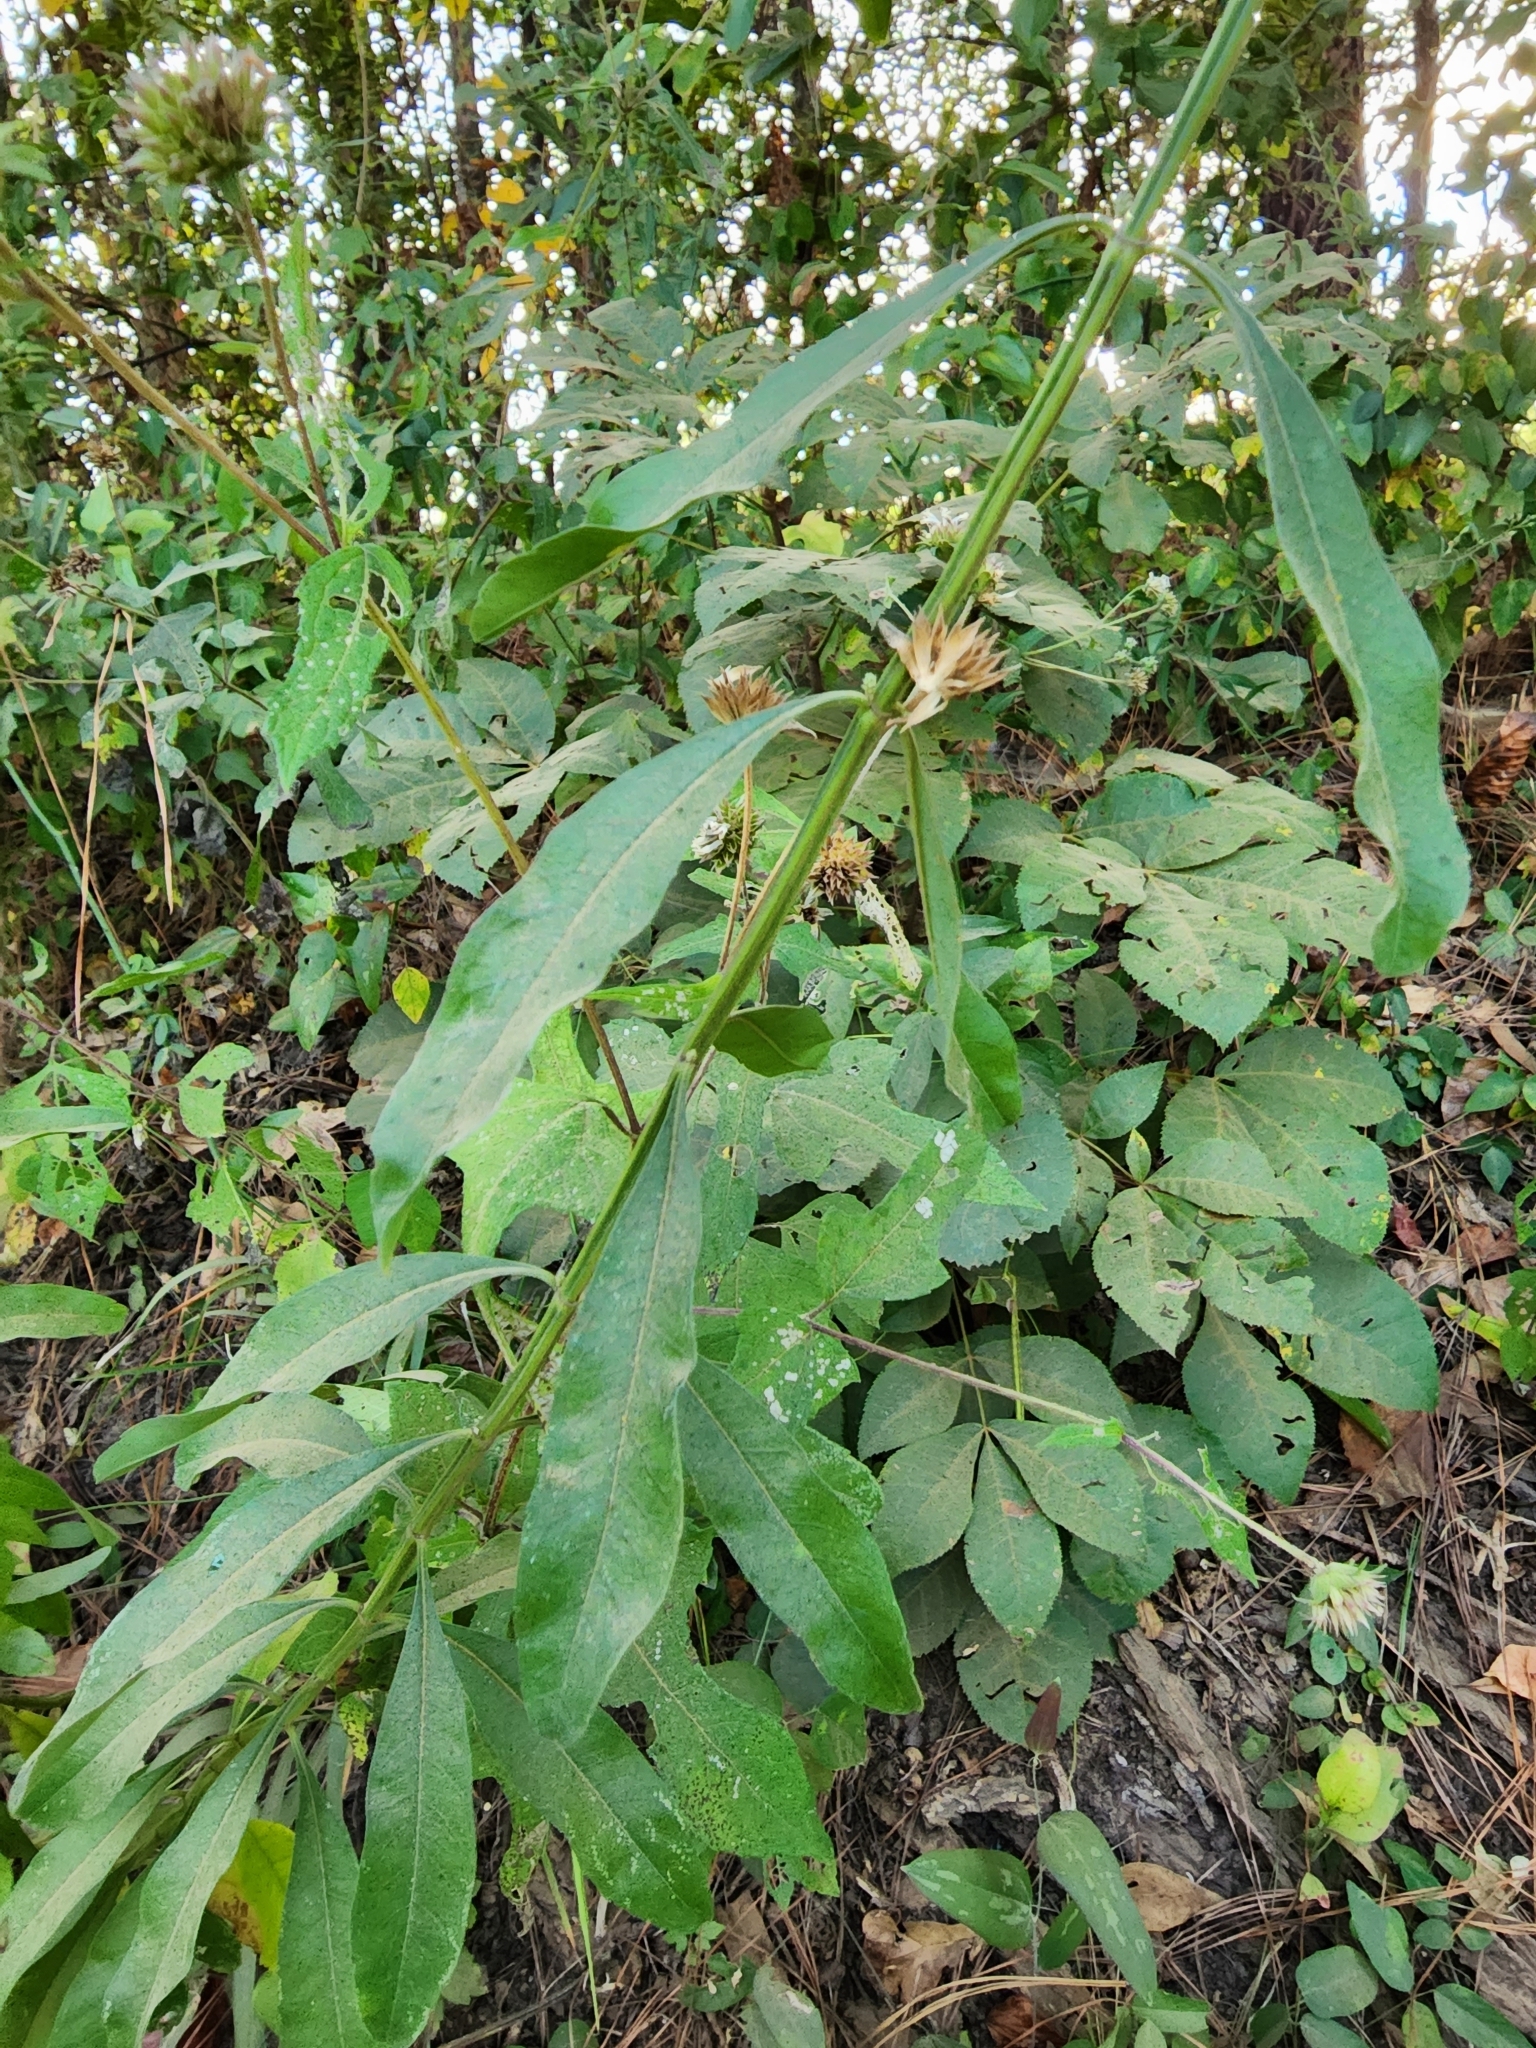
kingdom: Plantae
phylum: Tracheophyta
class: Magnoliopsida
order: Lamiales
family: Lamiaceae
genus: Salvia
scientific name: Salvia azurea
